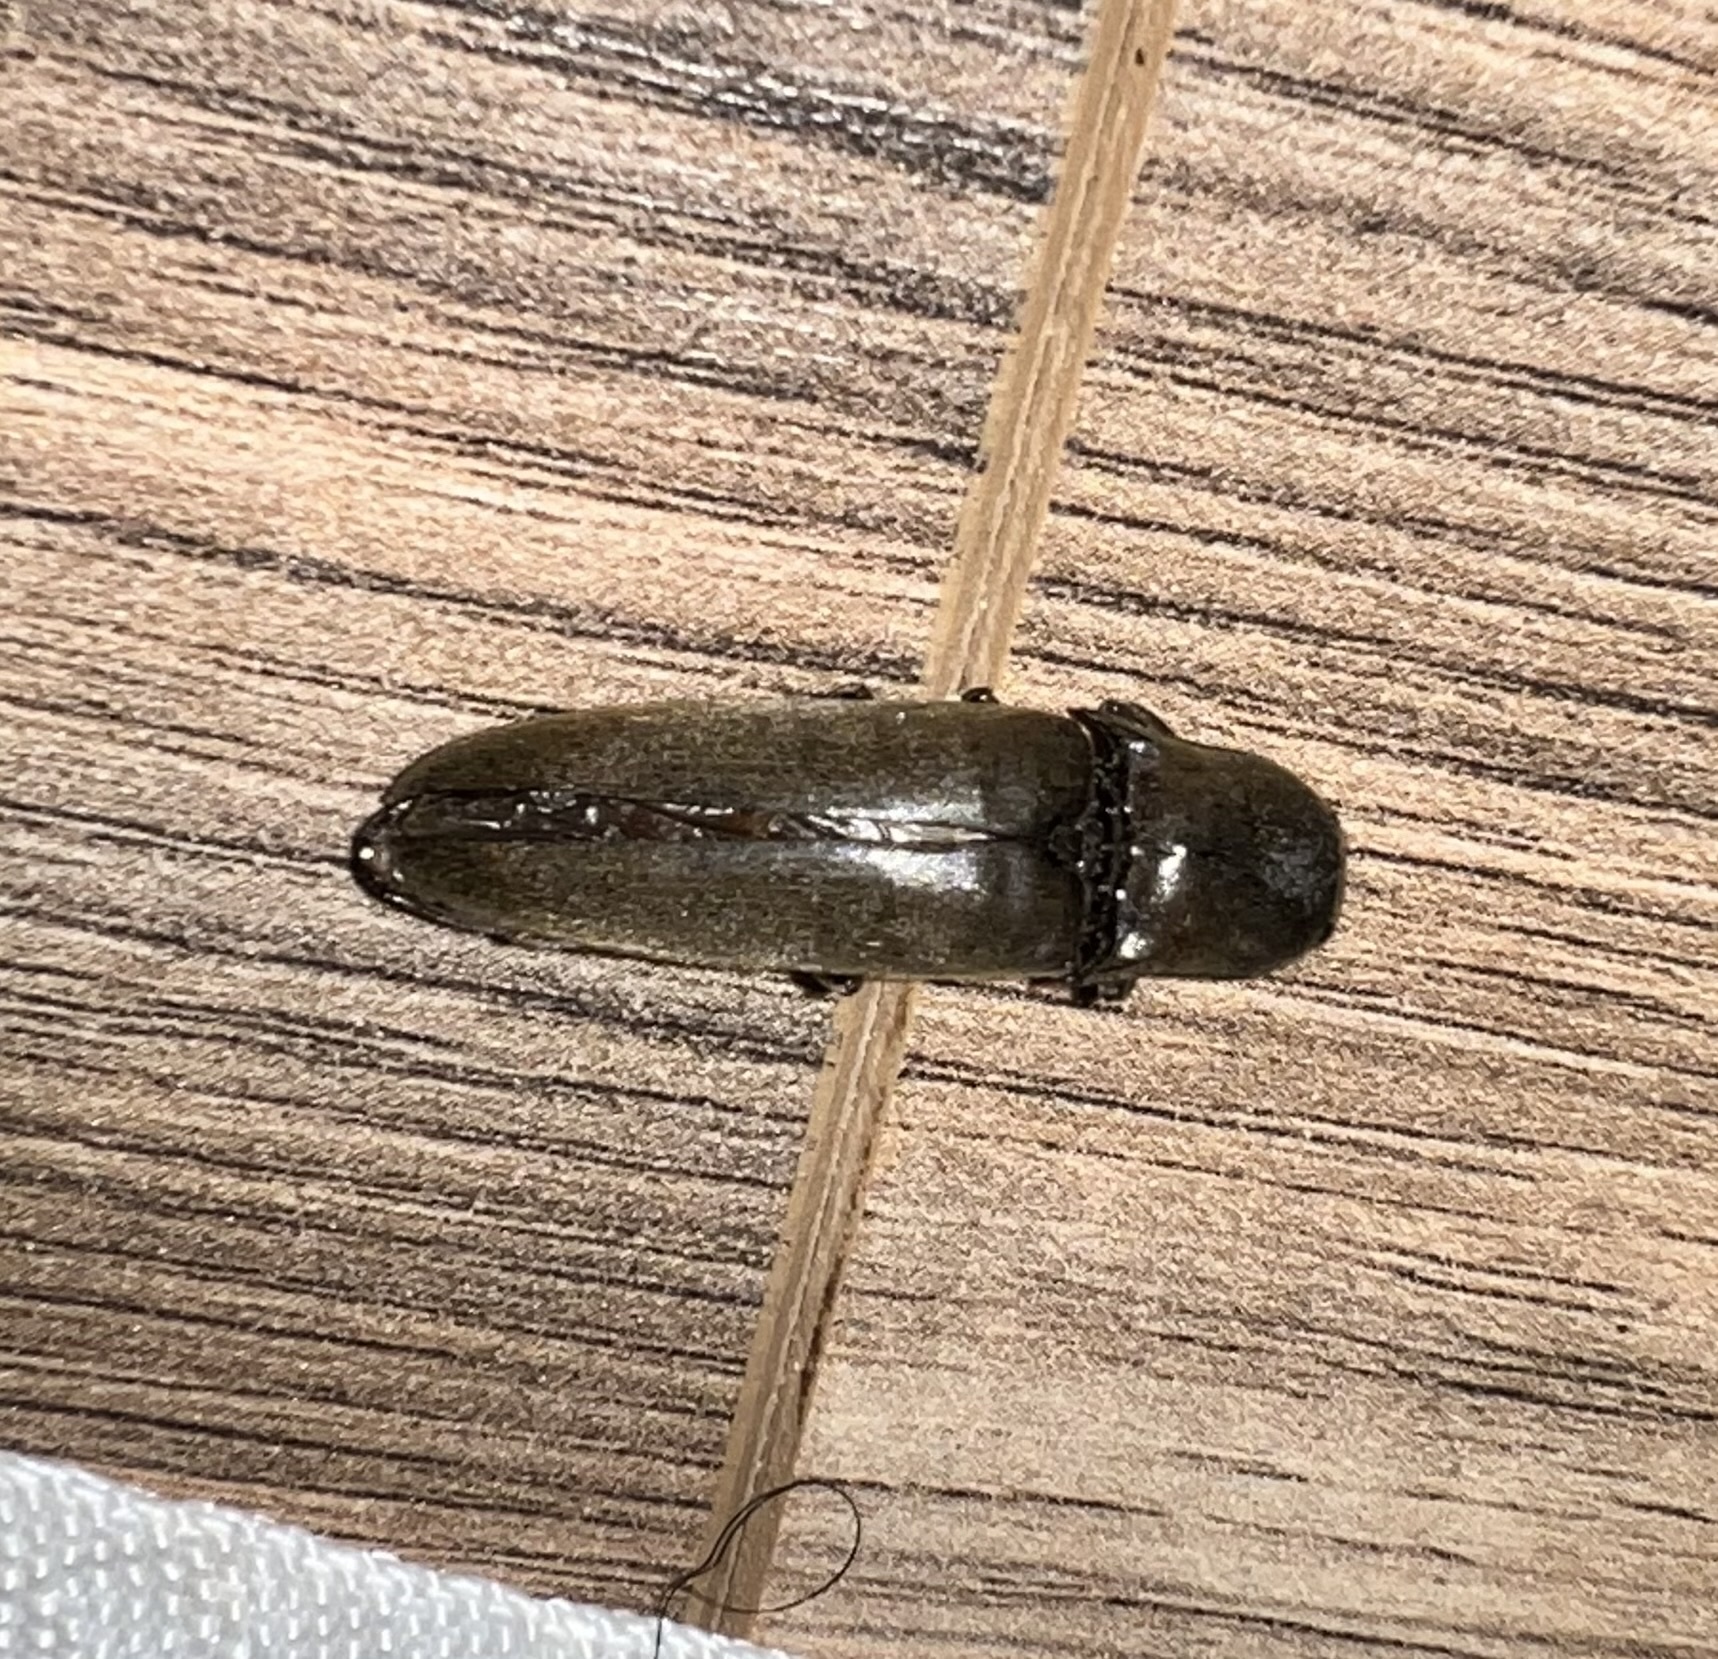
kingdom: Animalia
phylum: Arthropoda
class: Insecta
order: Coleoptera
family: Elateridae
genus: Orthostethus
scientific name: Orthostethus infuscatus
